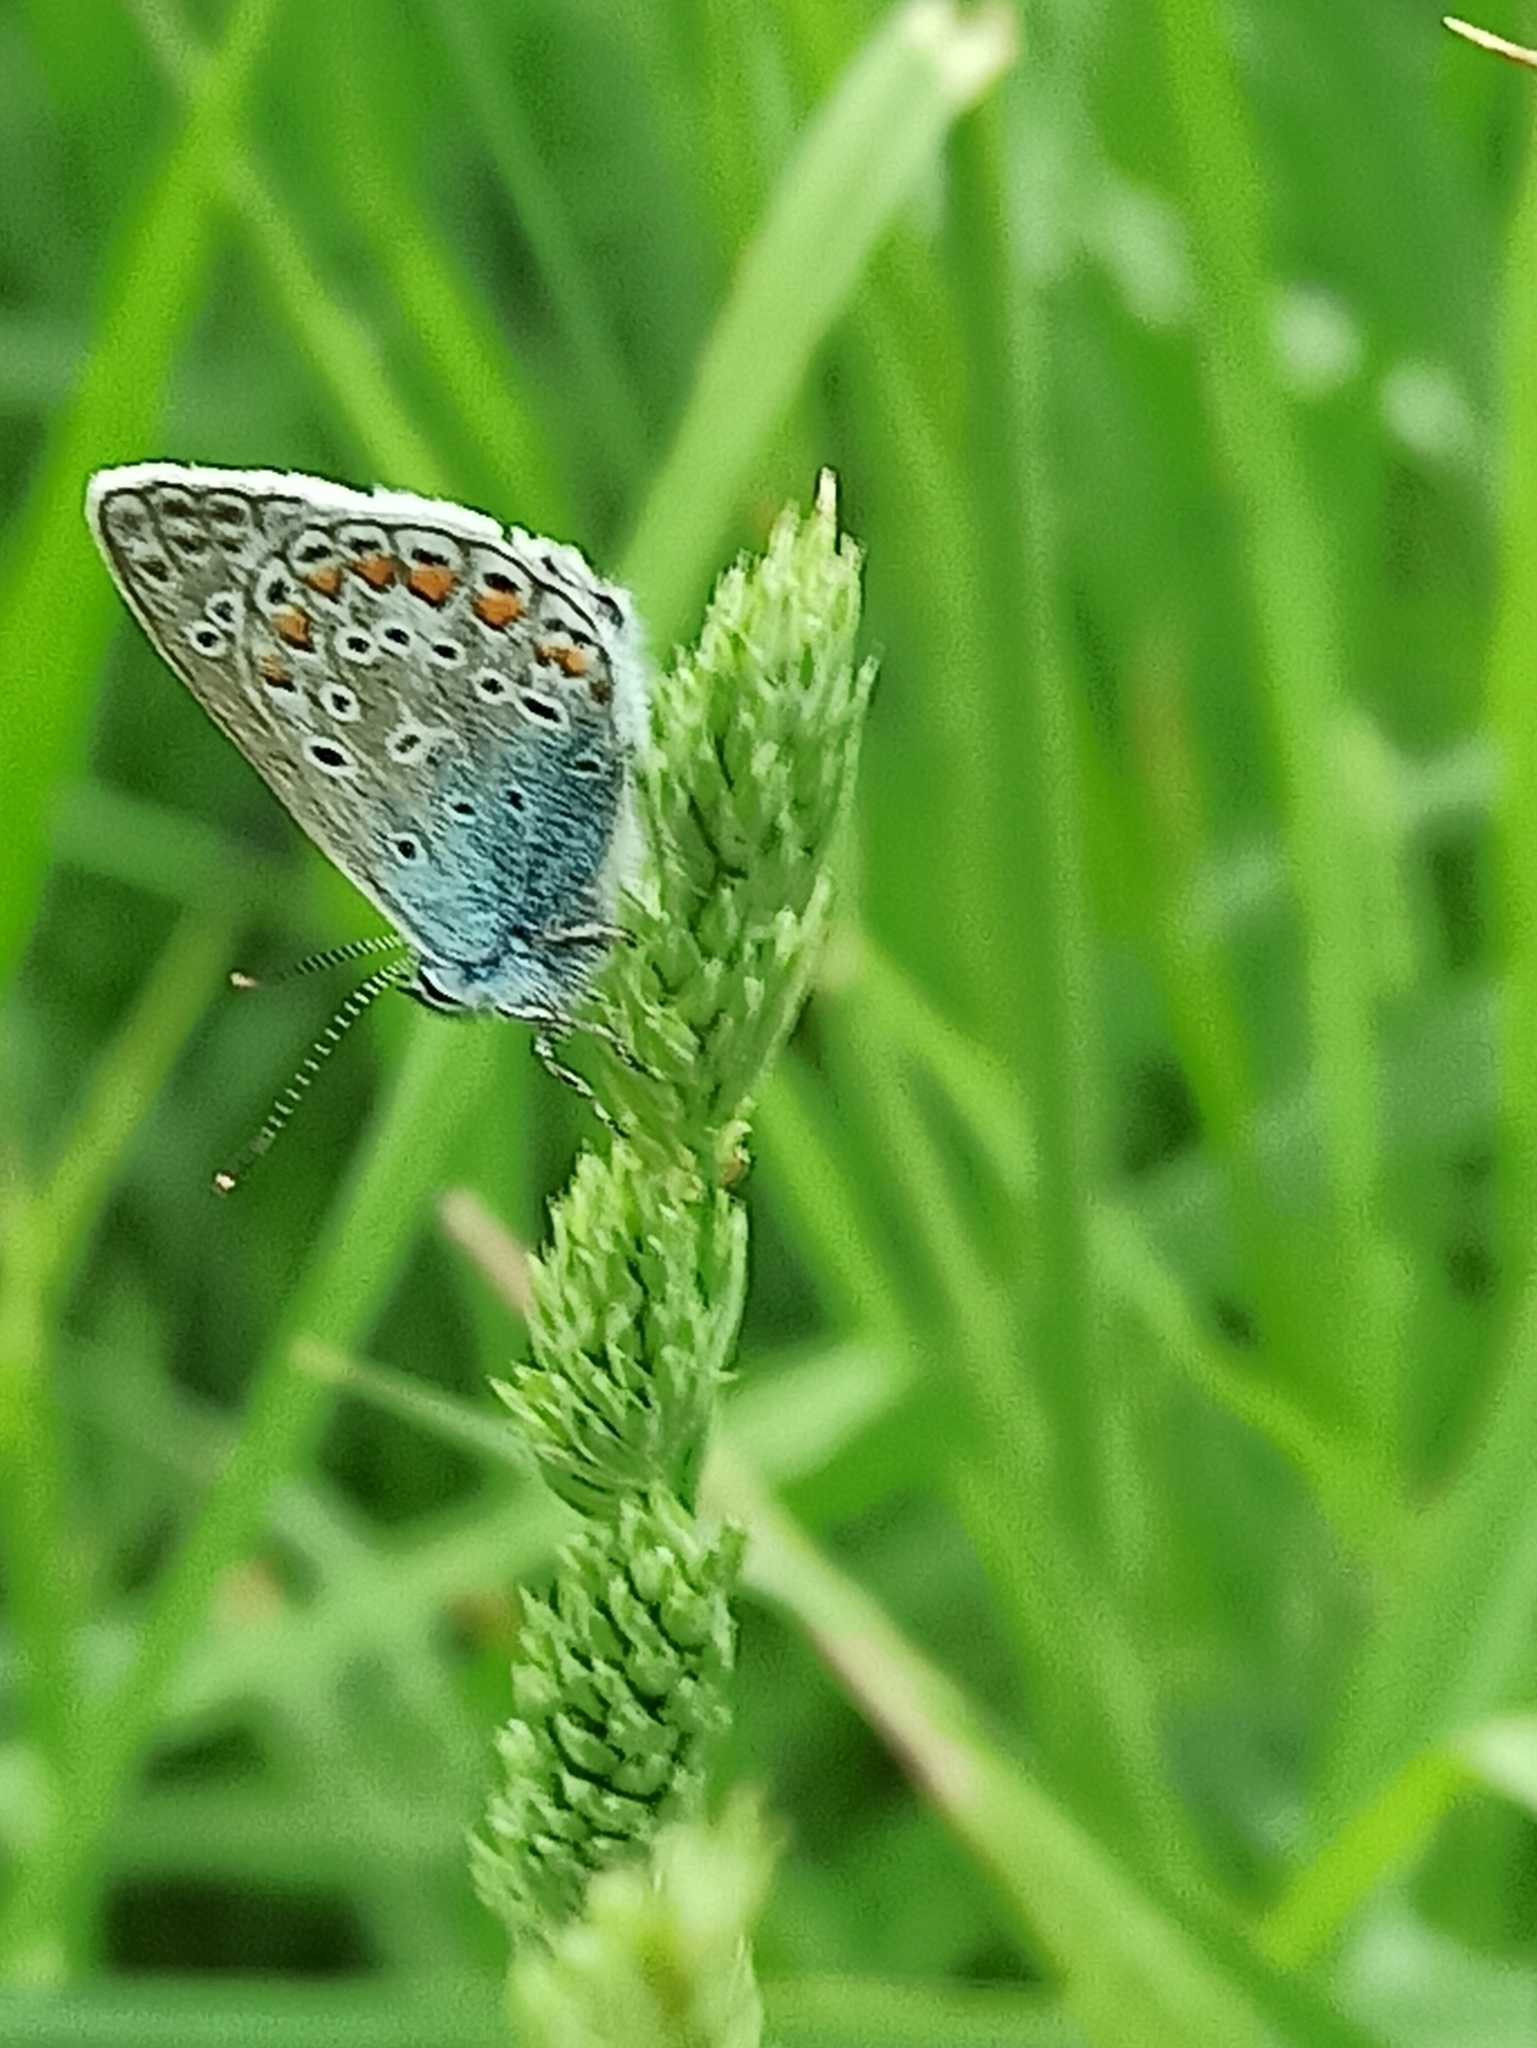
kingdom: Animalia
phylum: Arthropoda
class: Insecta
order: Lepidoptera
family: Lycaenidae
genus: Polyommatus
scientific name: Polyommatus icarus
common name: Common blue
